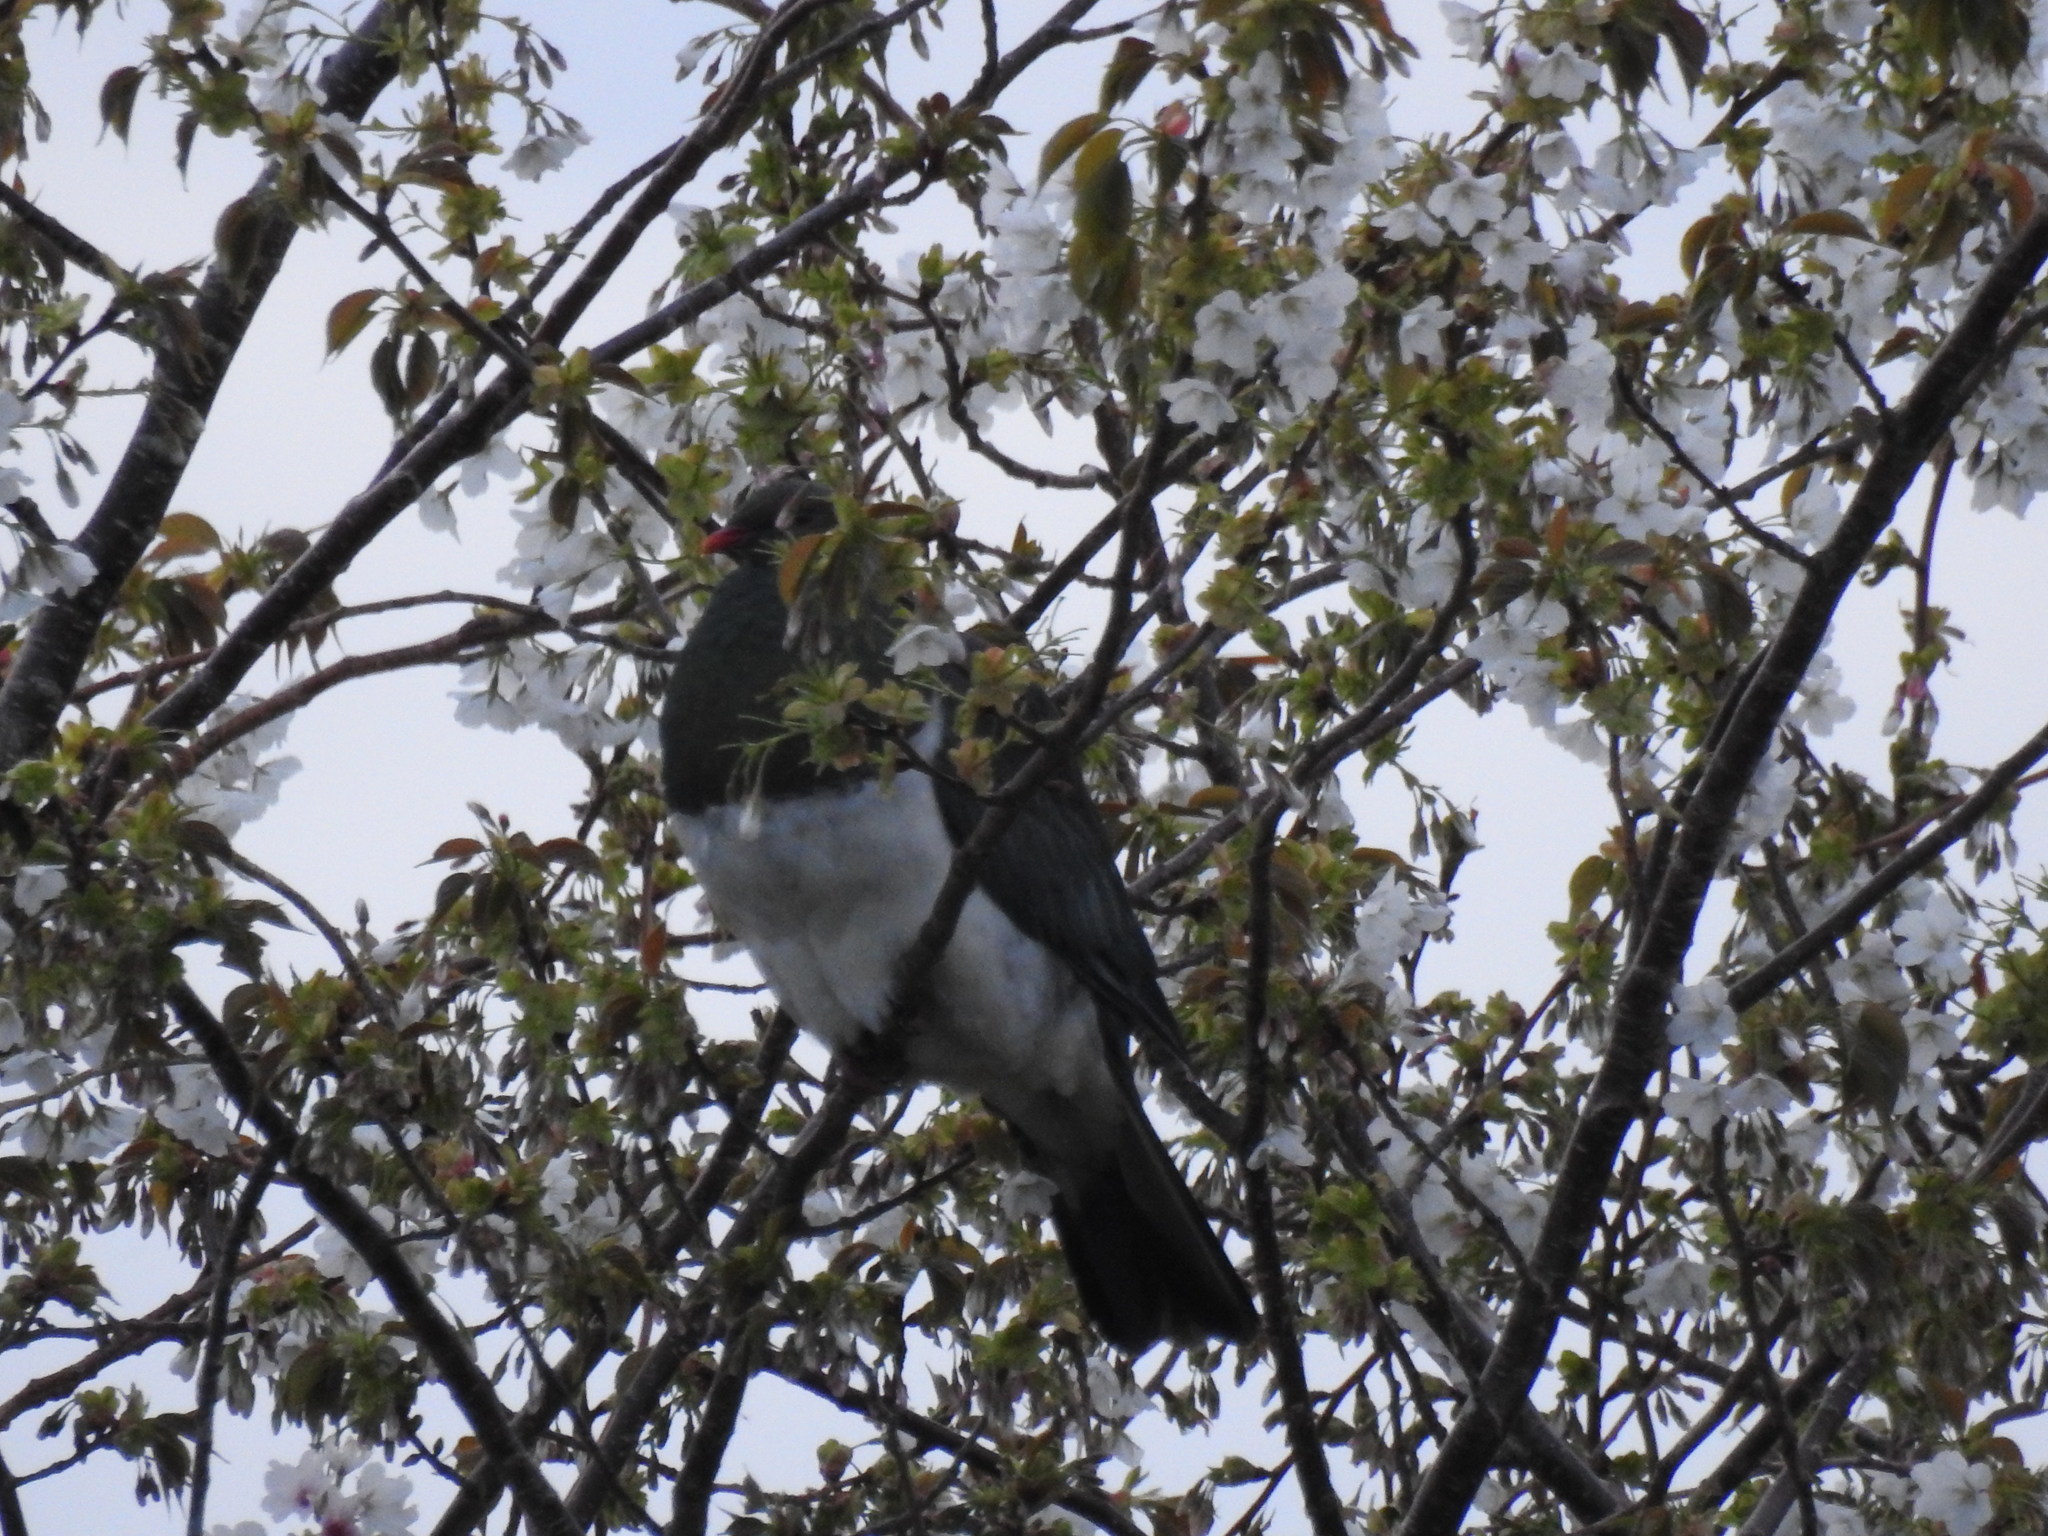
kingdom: Animalia
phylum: Chordata
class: Aves
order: Columbiformes
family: Columbidae
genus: Hemiphaga
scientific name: Hemiphaga novaeseelandiae
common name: New zealand pigeon
